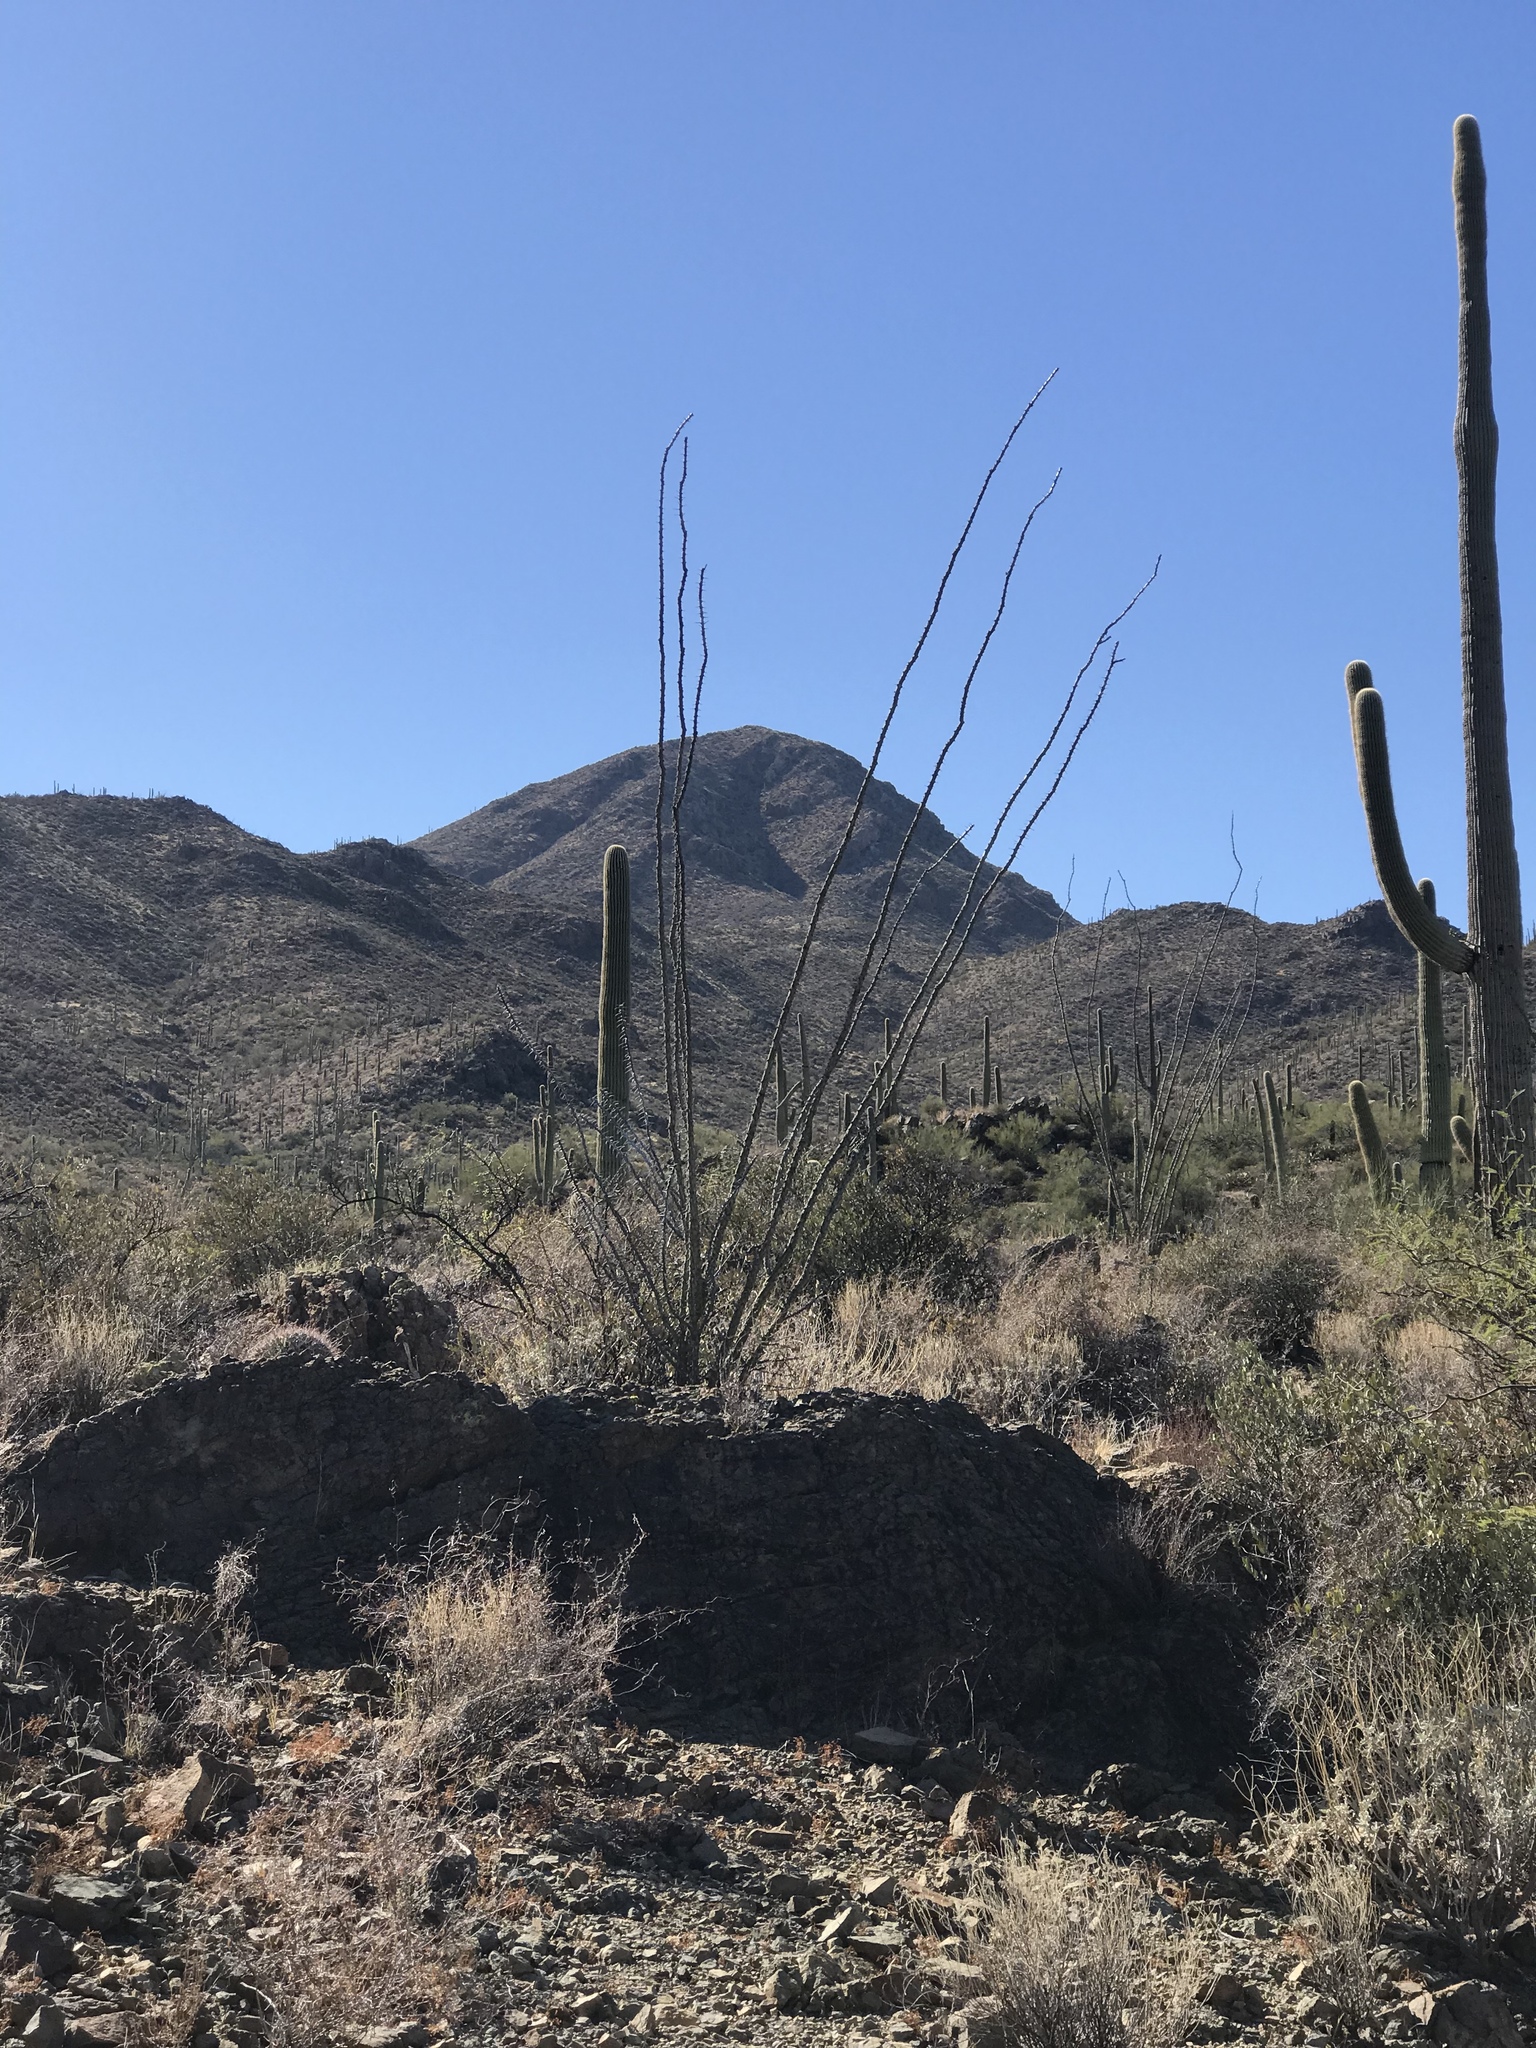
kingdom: Plantae
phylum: Tracheophyta
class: Magnoliopsida
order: Ericales
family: Fouquieriaceae
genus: Fouquieria
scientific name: Fouquieria splendens
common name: Vine-cactus
